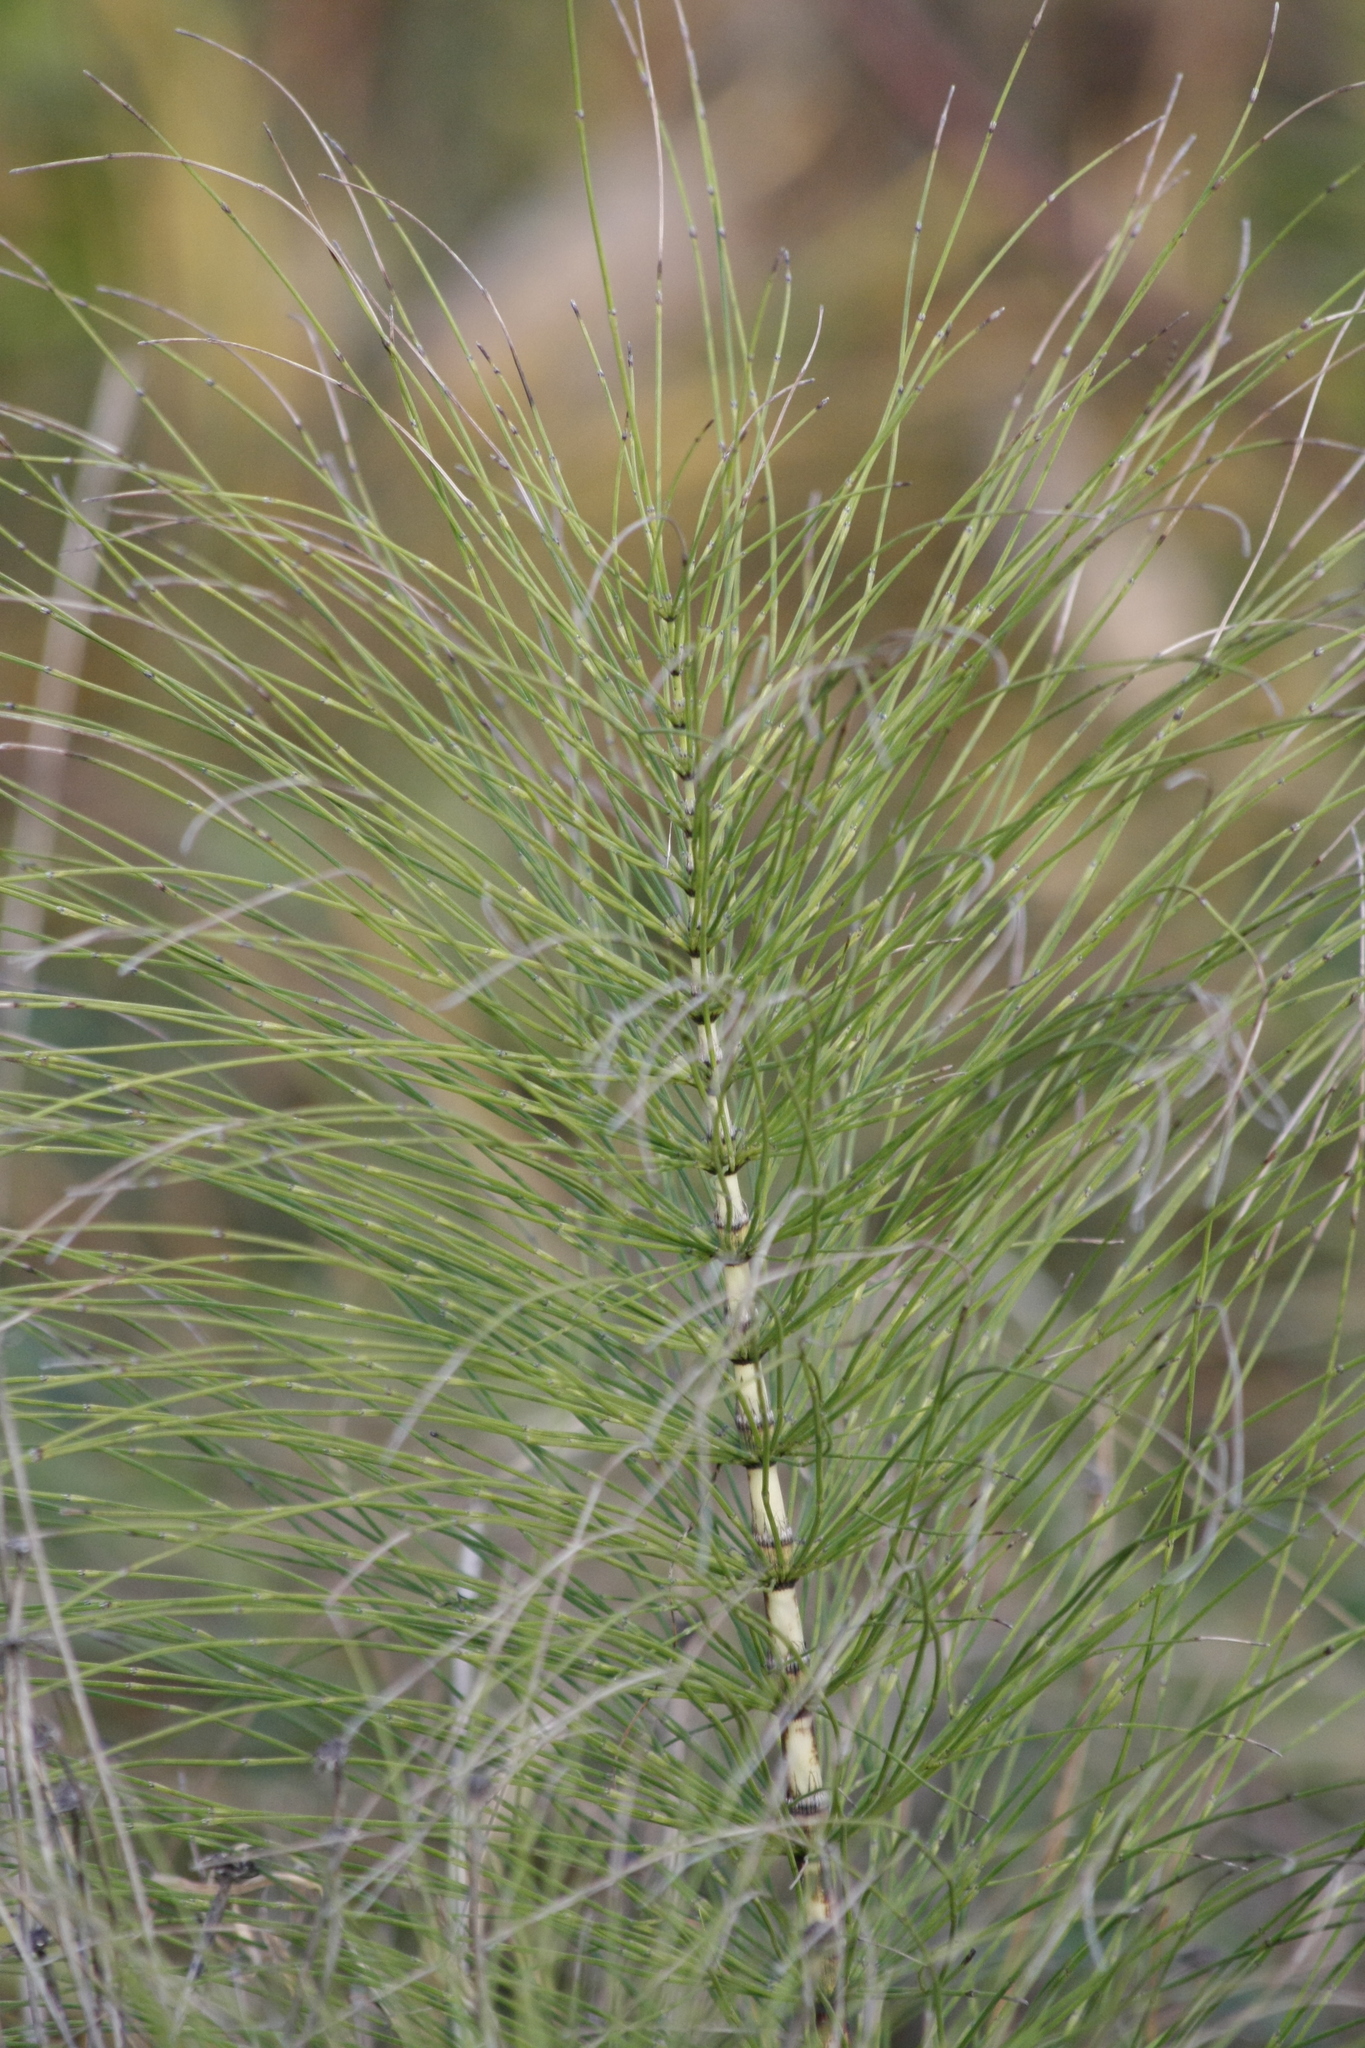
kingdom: Plantae
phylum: Tracheophyta
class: Polypodiopsida
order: Equisetales
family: Equisetaceae
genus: Equisetum
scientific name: Equisetum telmateia
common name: Great horsetail
